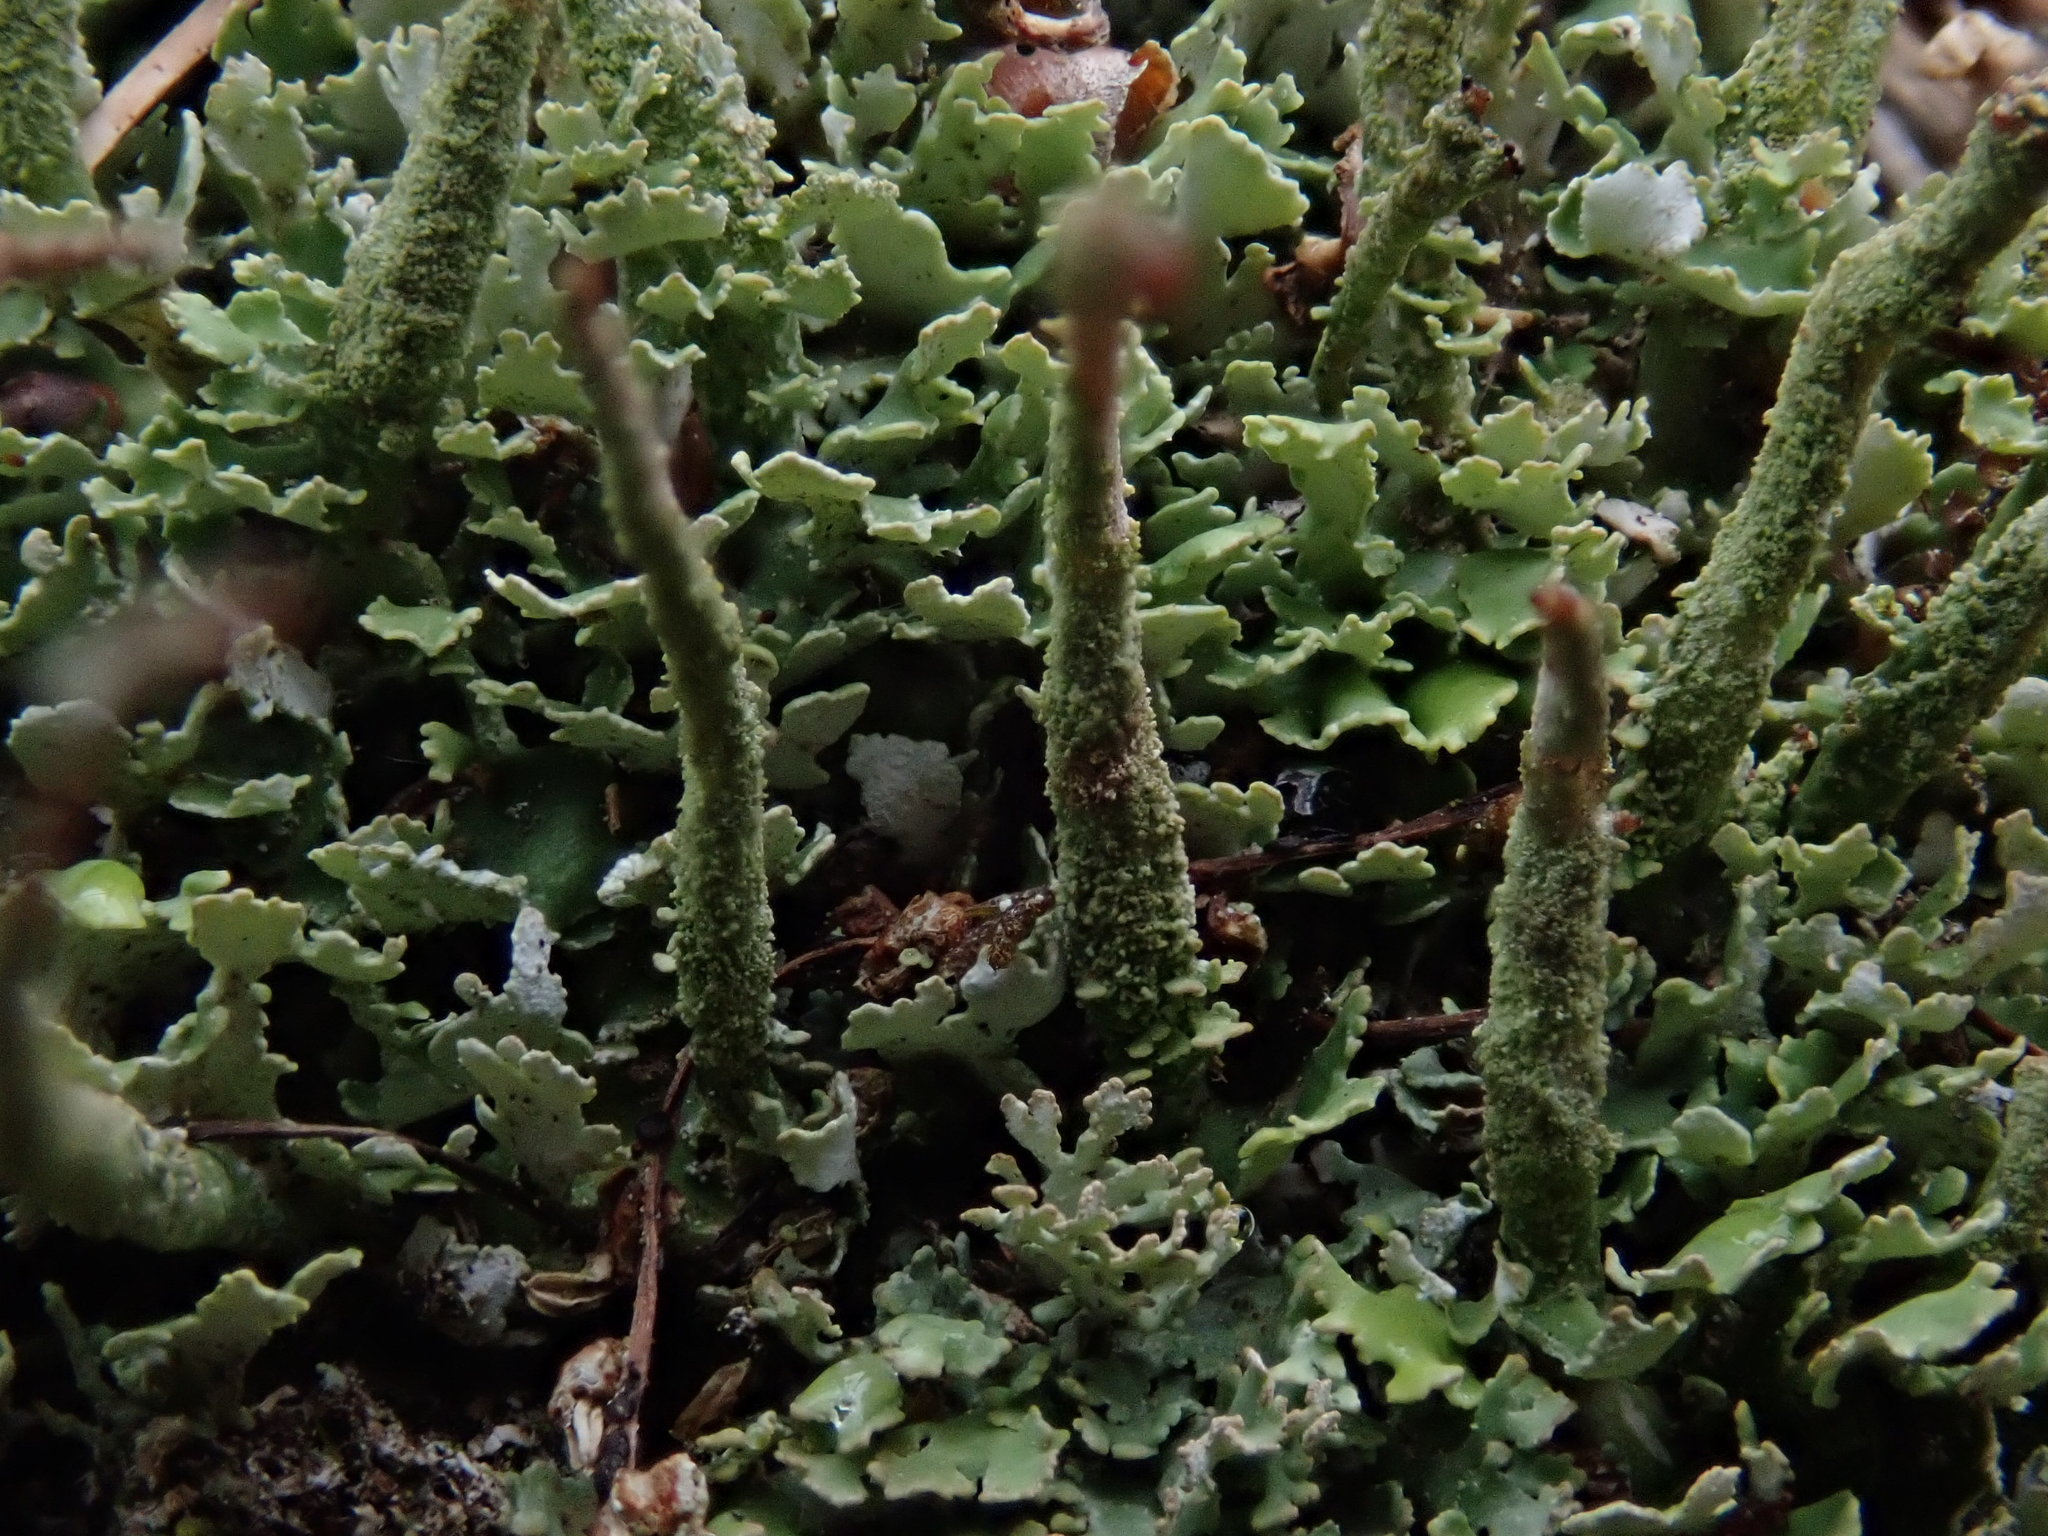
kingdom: Fungi
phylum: Ascomycota
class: Lecanoromycetes
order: Lecanorales
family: Cladoniaceae
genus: Cladonia
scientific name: Cladonia coniocraea
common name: Common powderhorn
